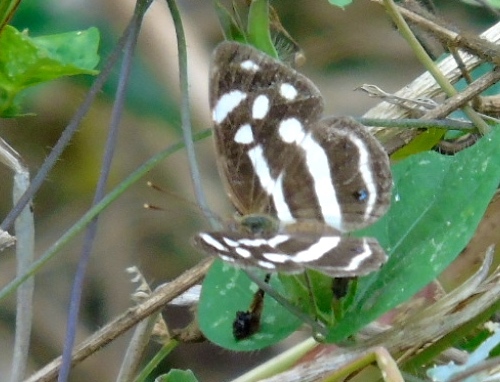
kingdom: Animalia
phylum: Arthropoda
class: Insecta
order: Lepidoptera
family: Nymphalidae
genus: Dynamine
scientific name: Dynamine mylitta
